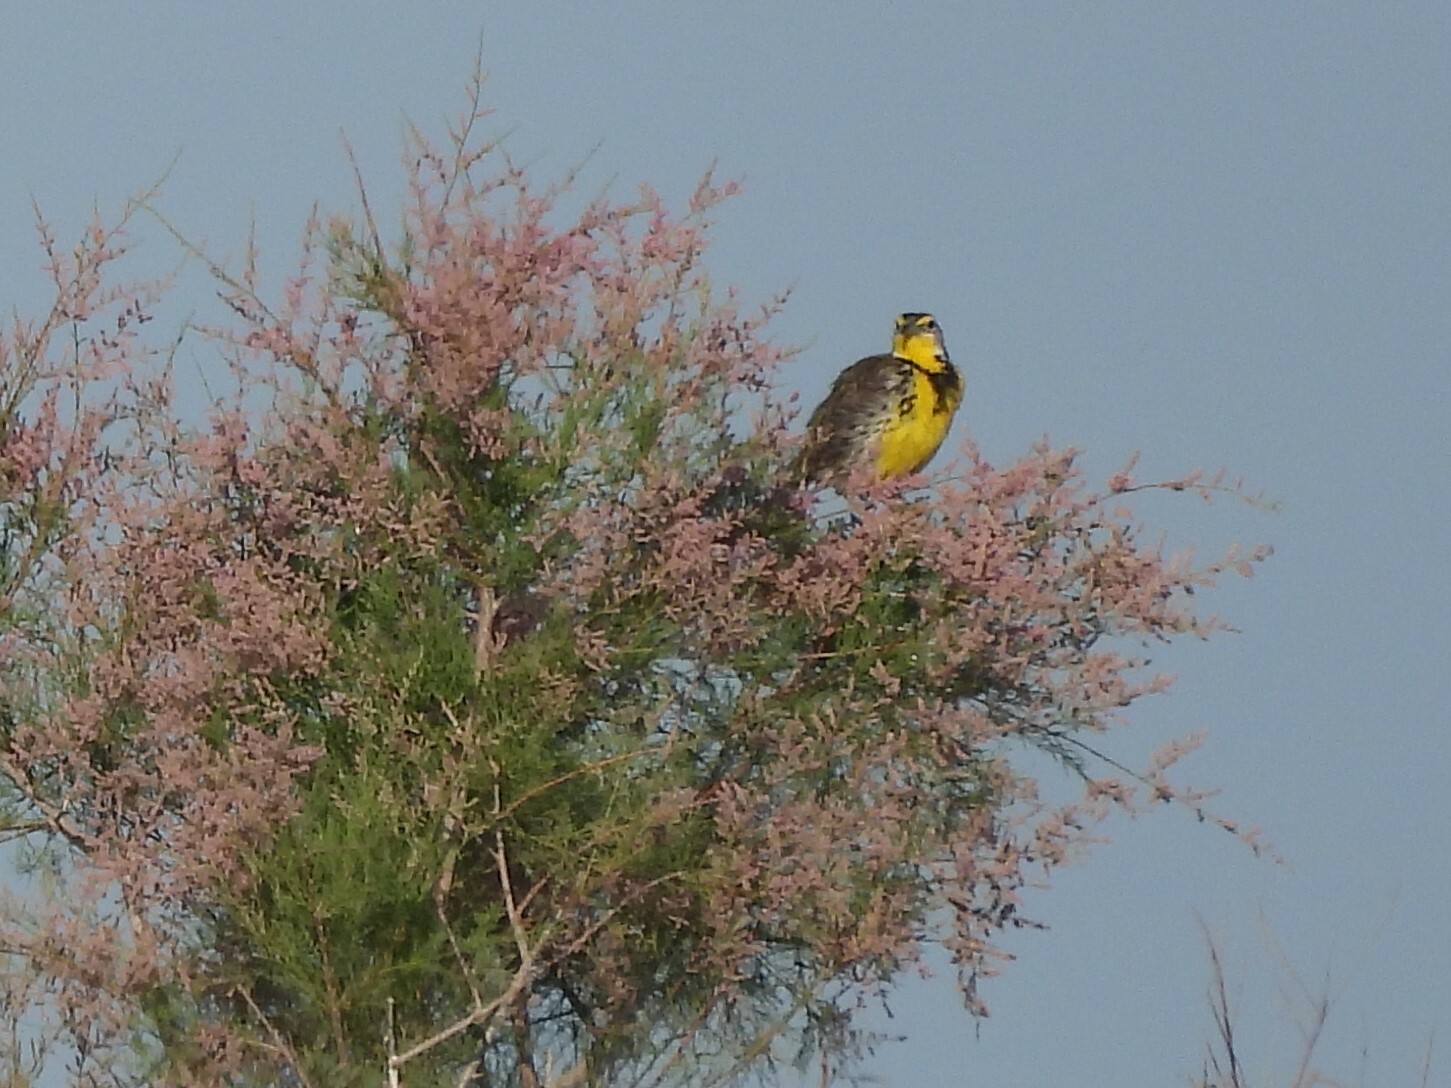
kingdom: Animalia
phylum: Chordata
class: Aves
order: Passeriformes
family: Icteridae
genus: Sturnella
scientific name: Sturnella neglecta
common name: Western meadowlark
